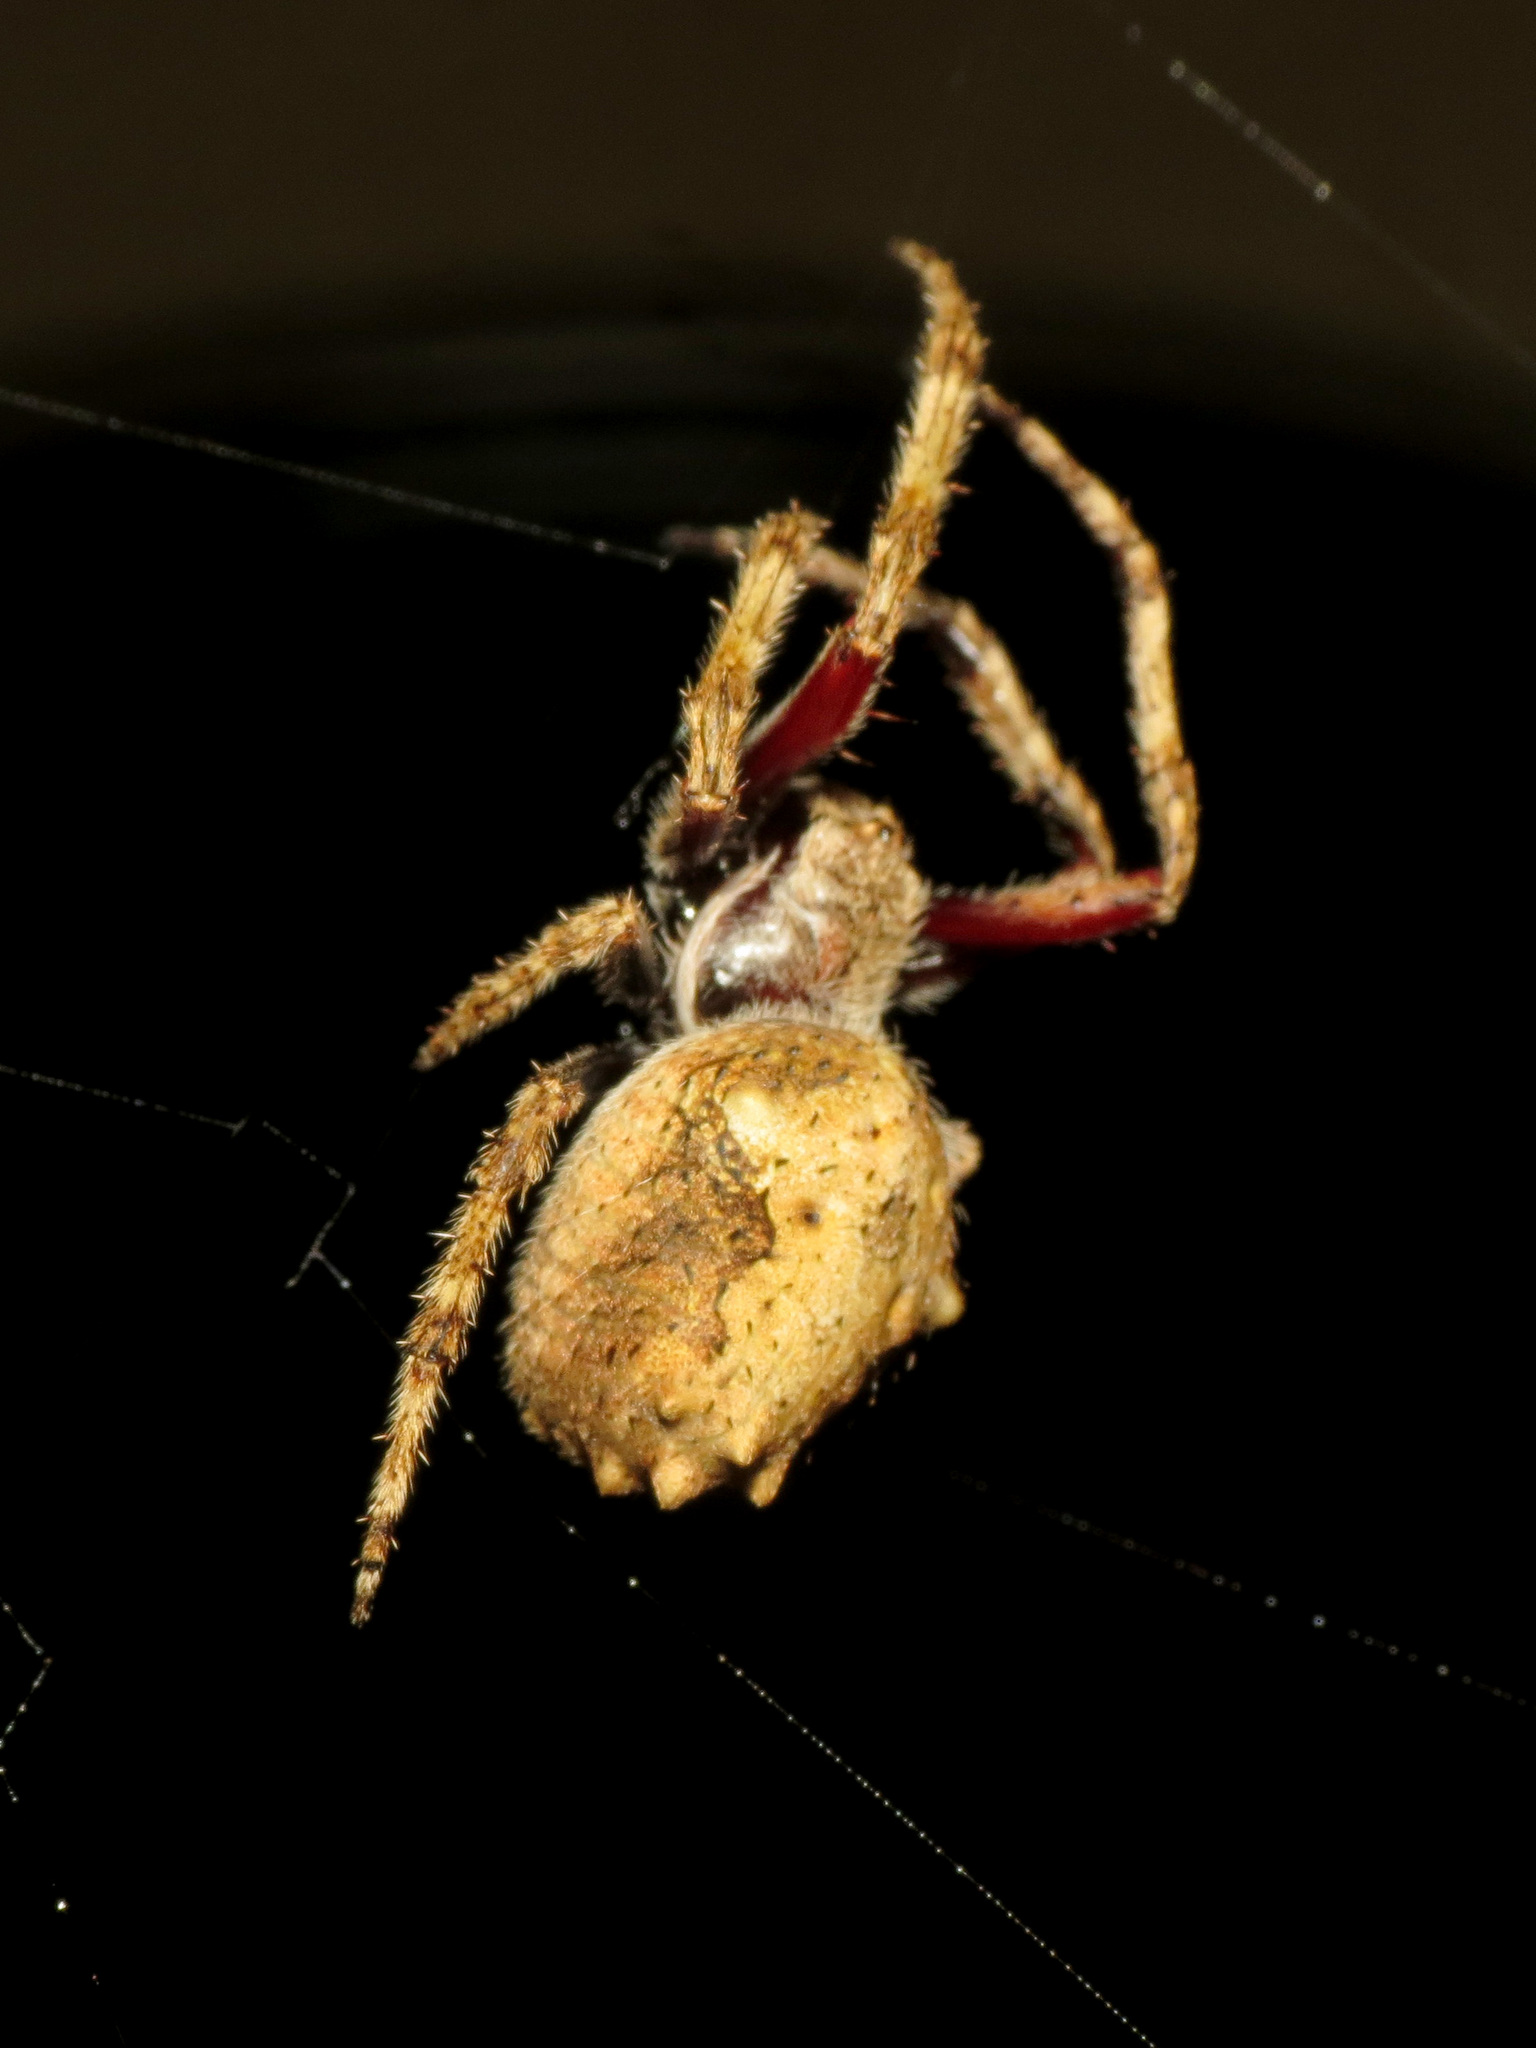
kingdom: Animalia
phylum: Arthropoda
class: Arachnida
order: Araneae
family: Araneidae
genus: Eriophora
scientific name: Eriophora pustulosa
